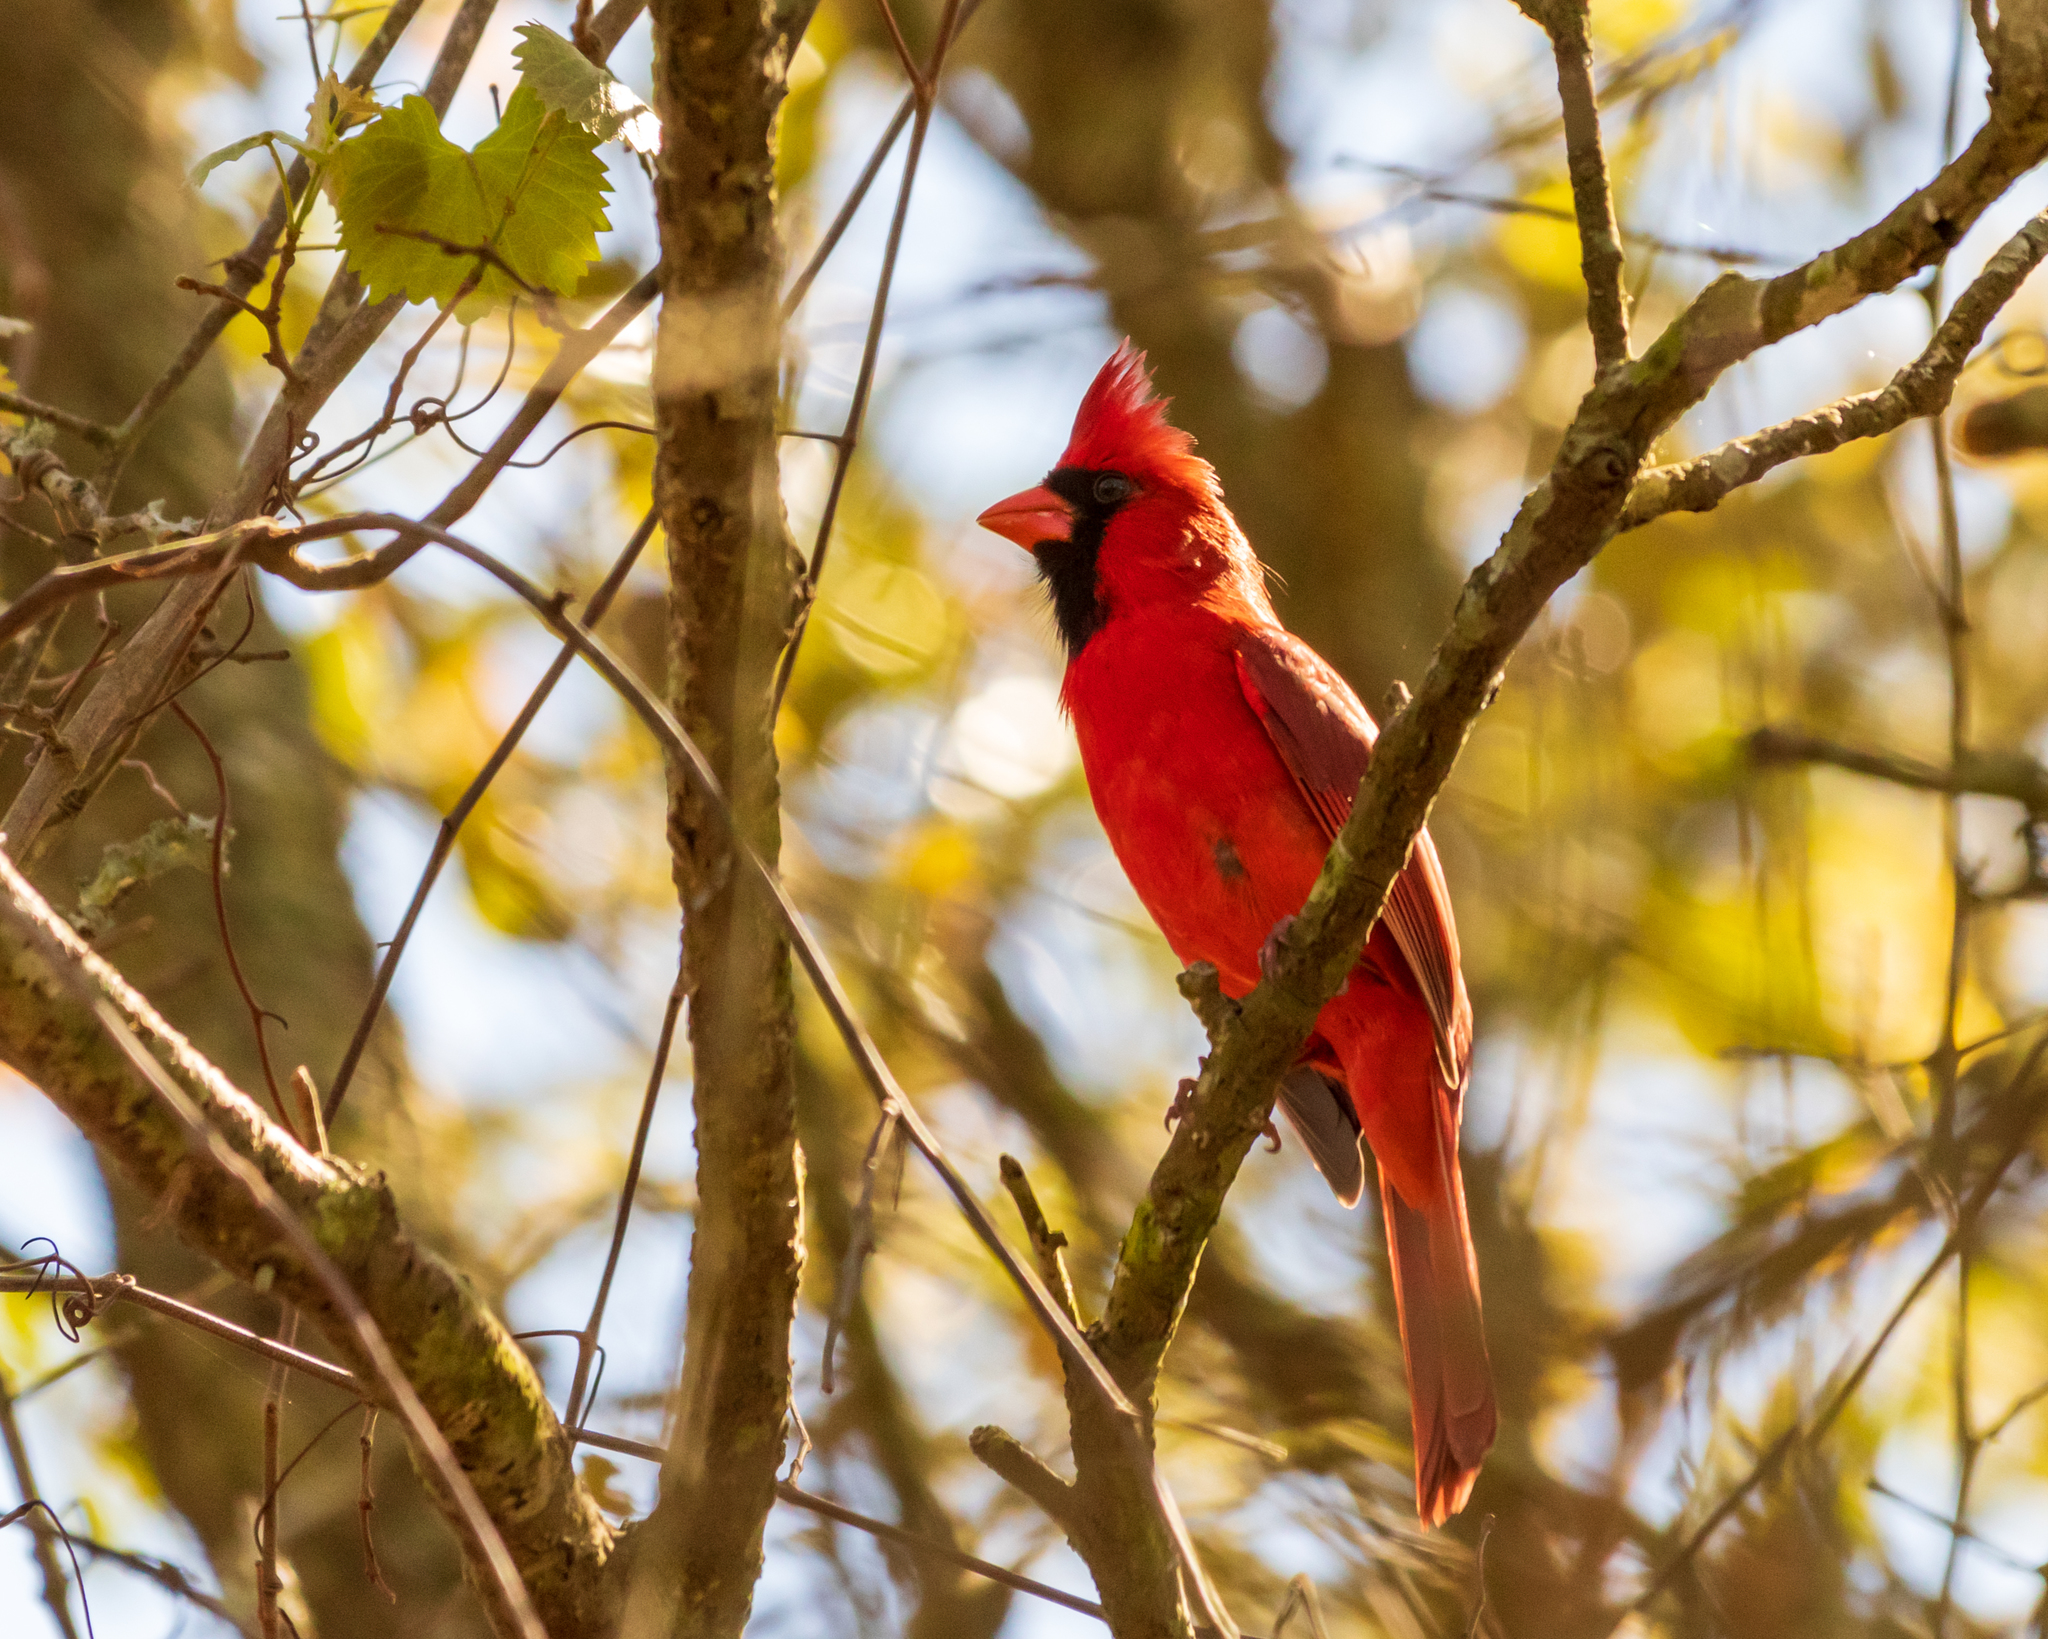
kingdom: Animalia
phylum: Chordata
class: Aves
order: Passeriformes
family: Cardinalidae
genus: Cardinalis
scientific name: Cardinalis cardinalis
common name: Northern cardinal
